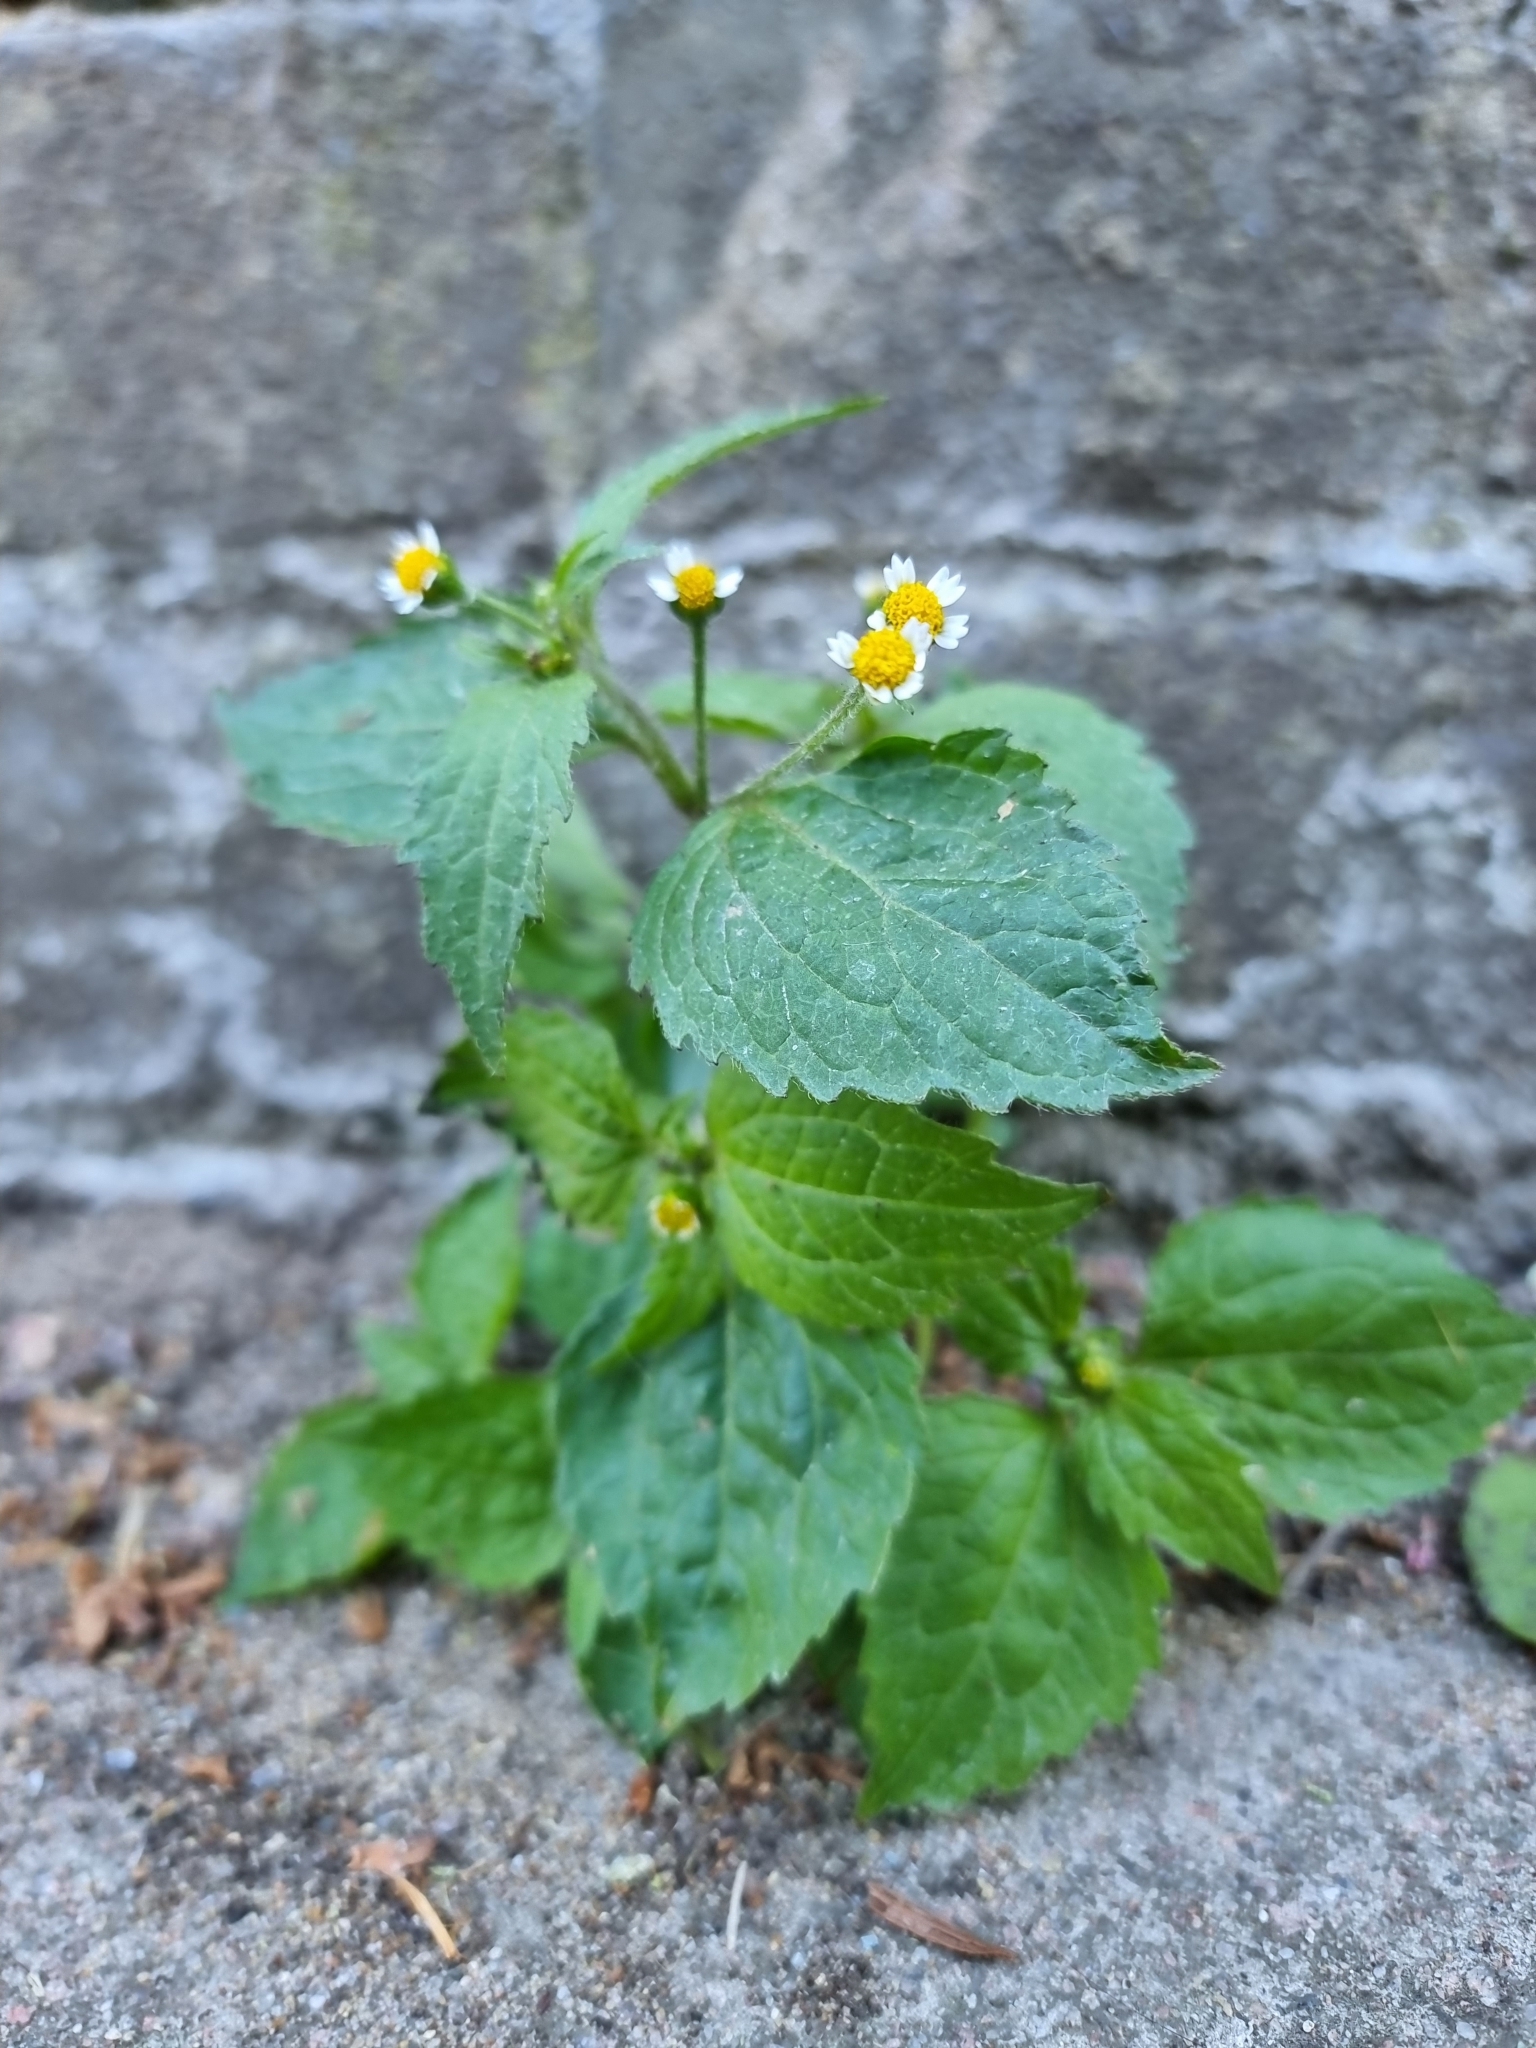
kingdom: Plantae
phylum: Tracheophyta
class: Magnoliopsida
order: Asterales
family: Asteraceae
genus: Galinsoga
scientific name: Galinsoga quadriradiata
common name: Shaggy soldier
